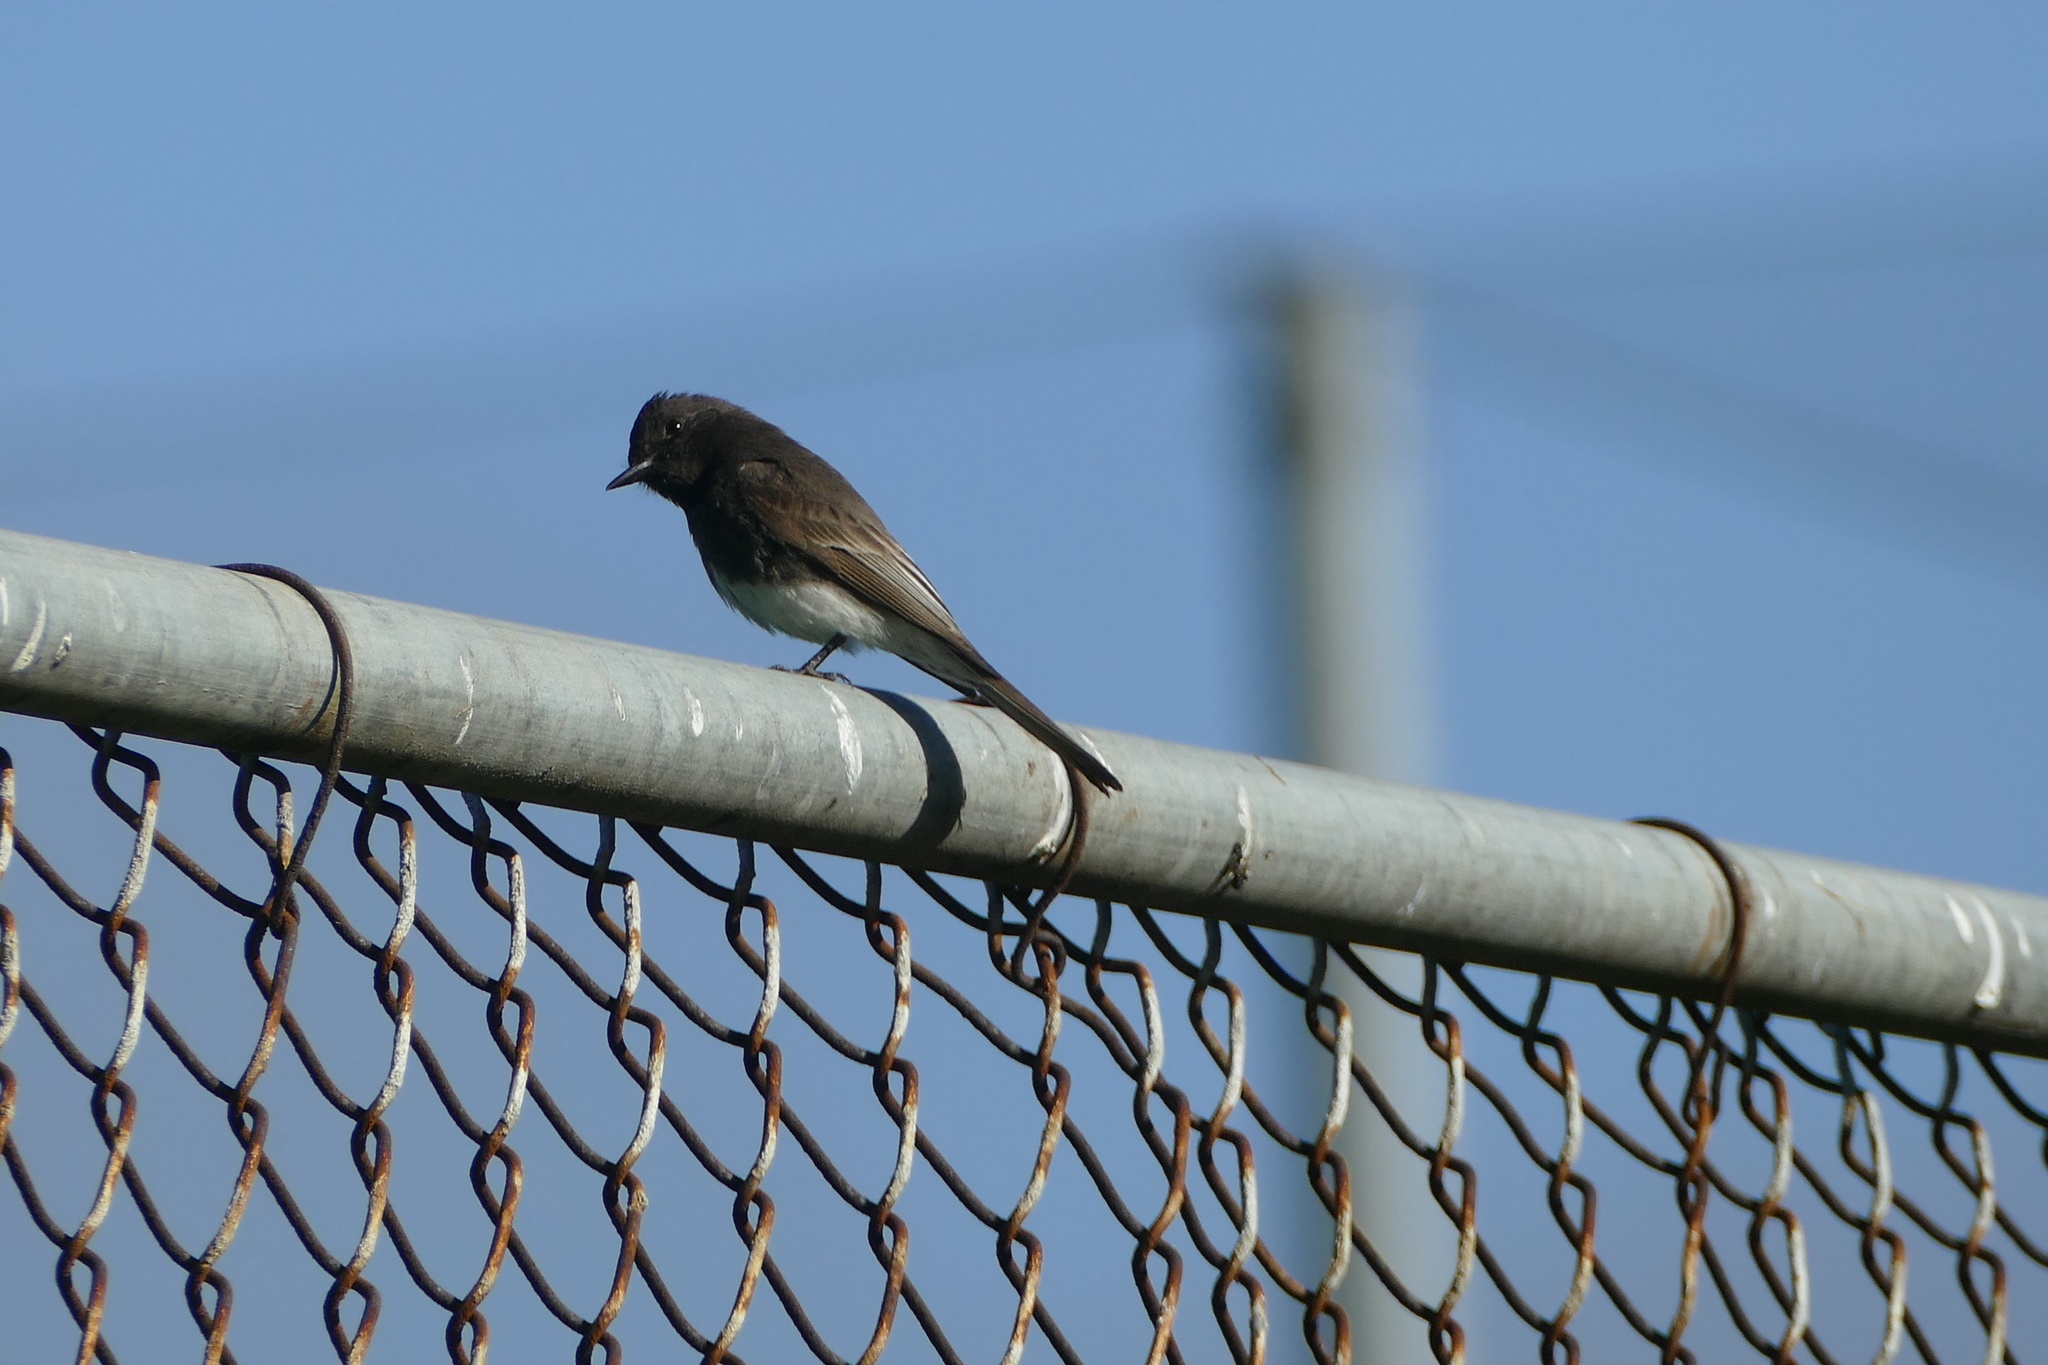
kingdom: Animalia
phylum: Chordata
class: Aves
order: Passeriformes
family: Tyrannidae
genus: Sayornis
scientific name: Sayornis nigricans
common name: Black phoebe
